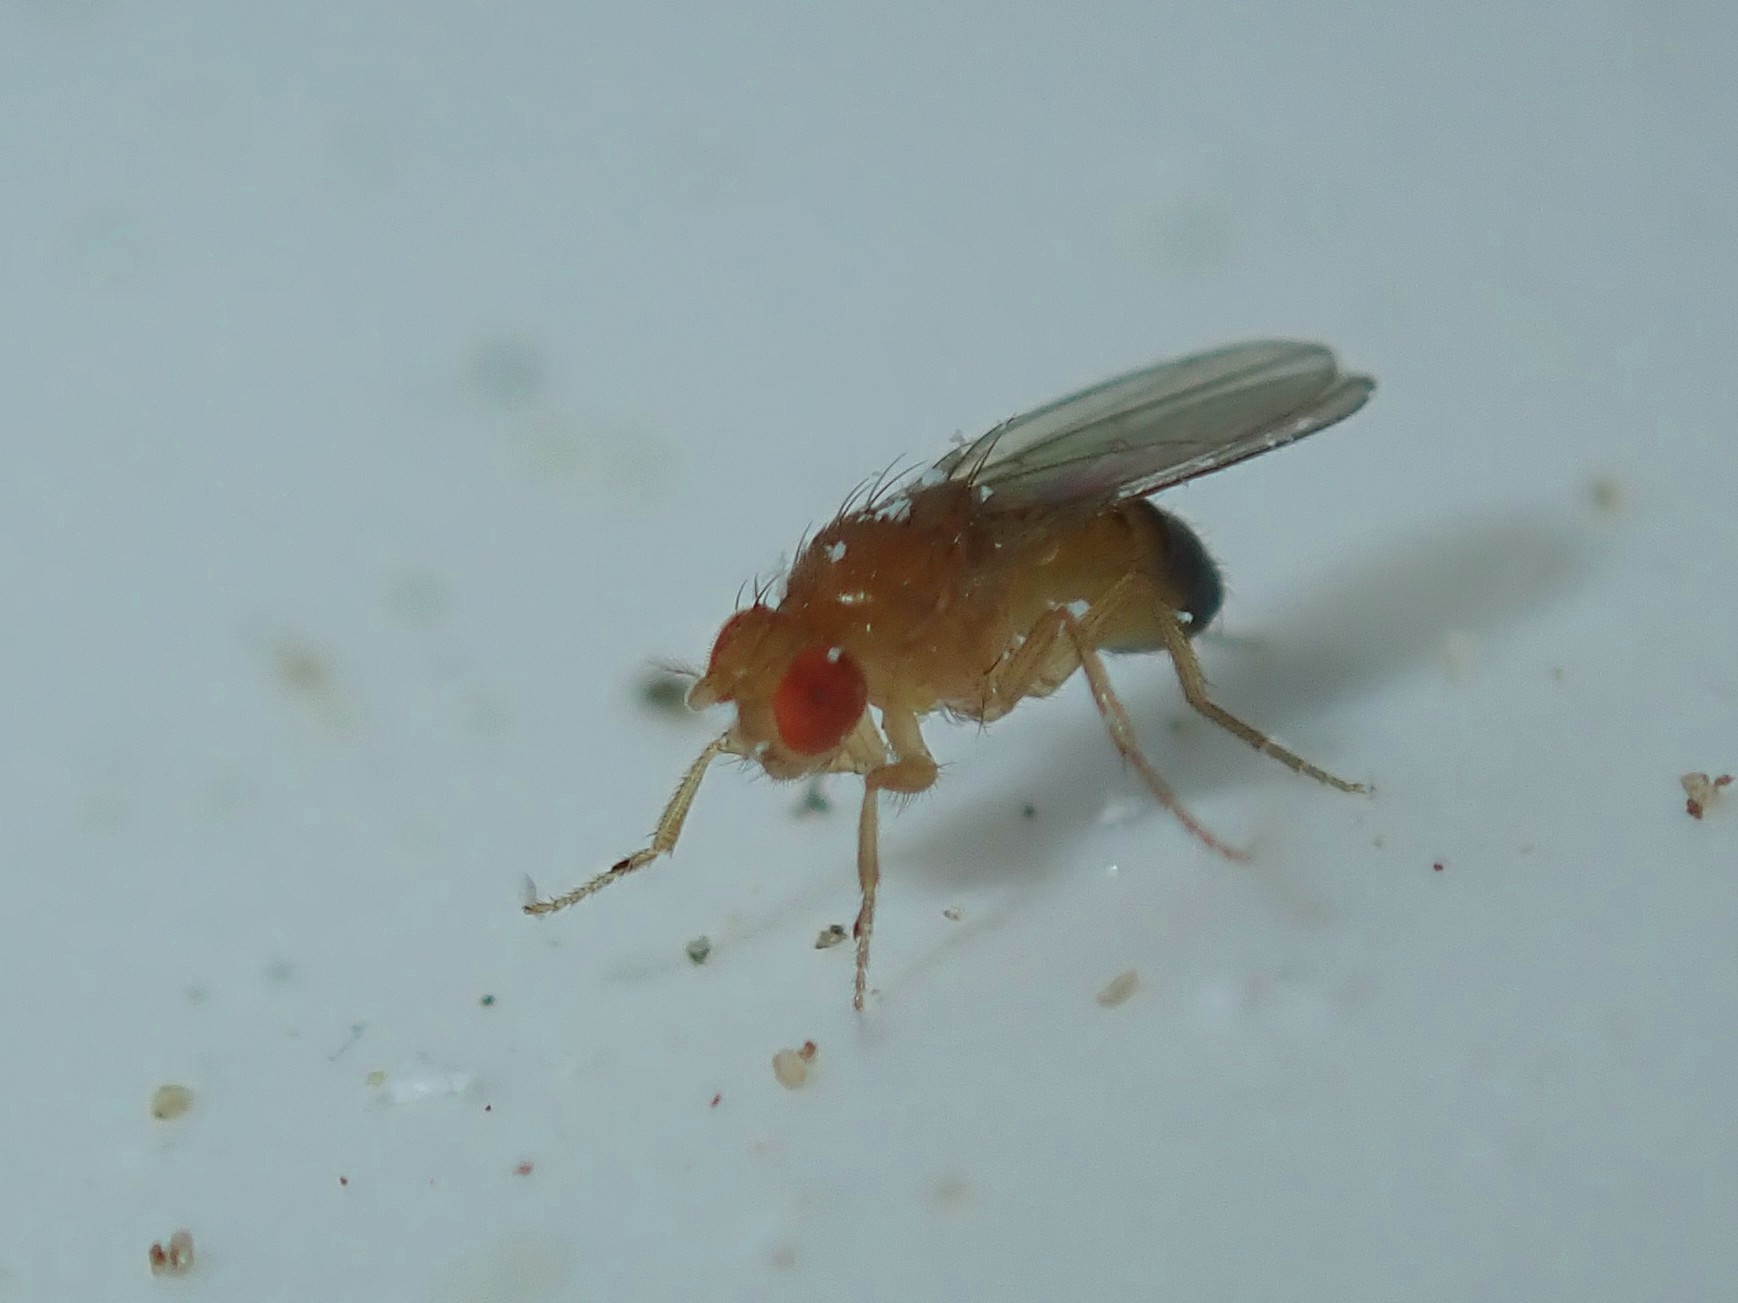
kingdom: Animalia
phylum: Arthropoda
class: Insecta
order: Diptera
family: Drosophilidae
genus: Drosophila
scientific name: Drosophila melanogaster
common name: Pomace fly
